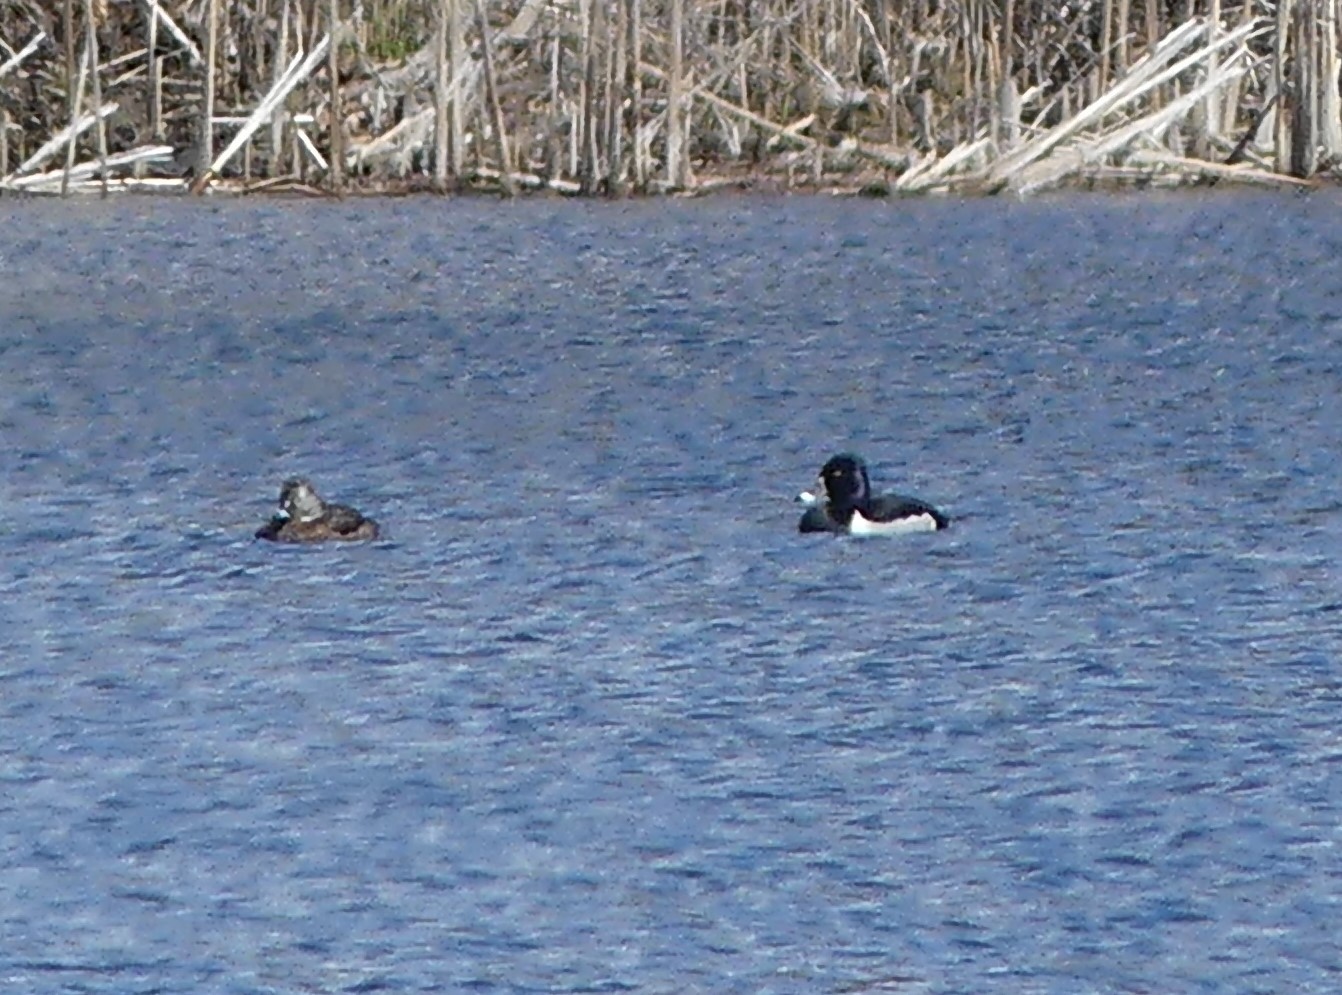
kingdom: Animalia
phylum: Chordata
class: Aves
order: Anseriformes
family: Anatidae
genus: Aythya
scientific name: Aythya collaris
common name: Ring-necked duck
